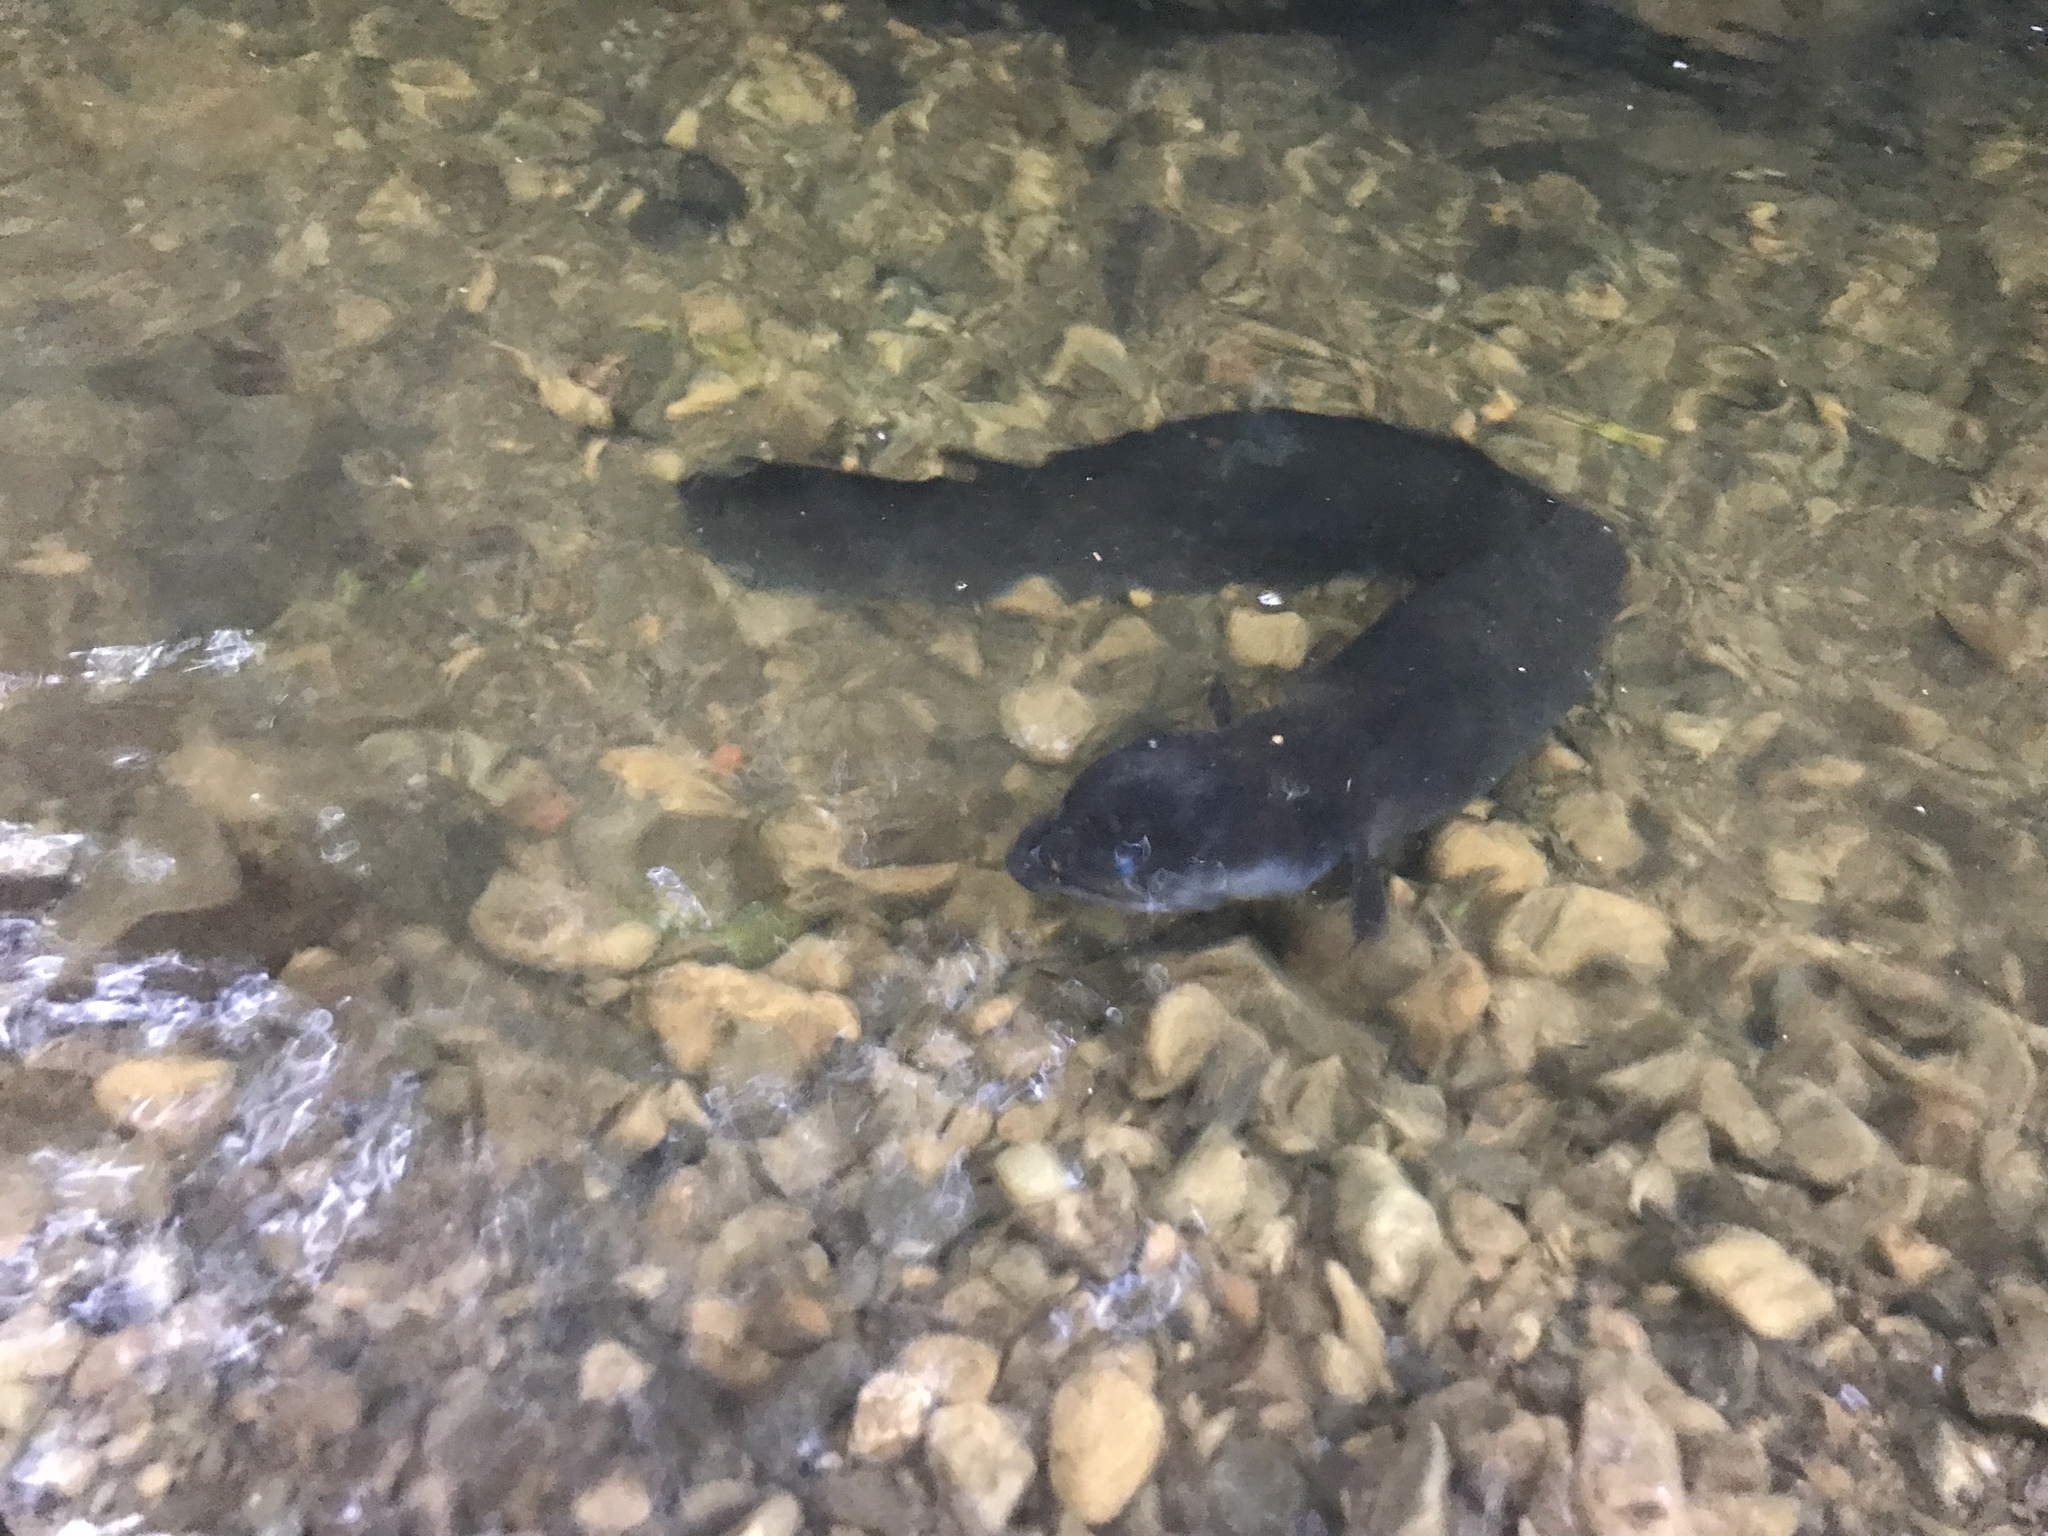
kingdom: Animalia
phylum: Chordata
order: Anguilliformes
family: Anguillidae
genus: Anguilla
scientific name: Anguilla dieffenbachii
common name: New zealand longfin eel
